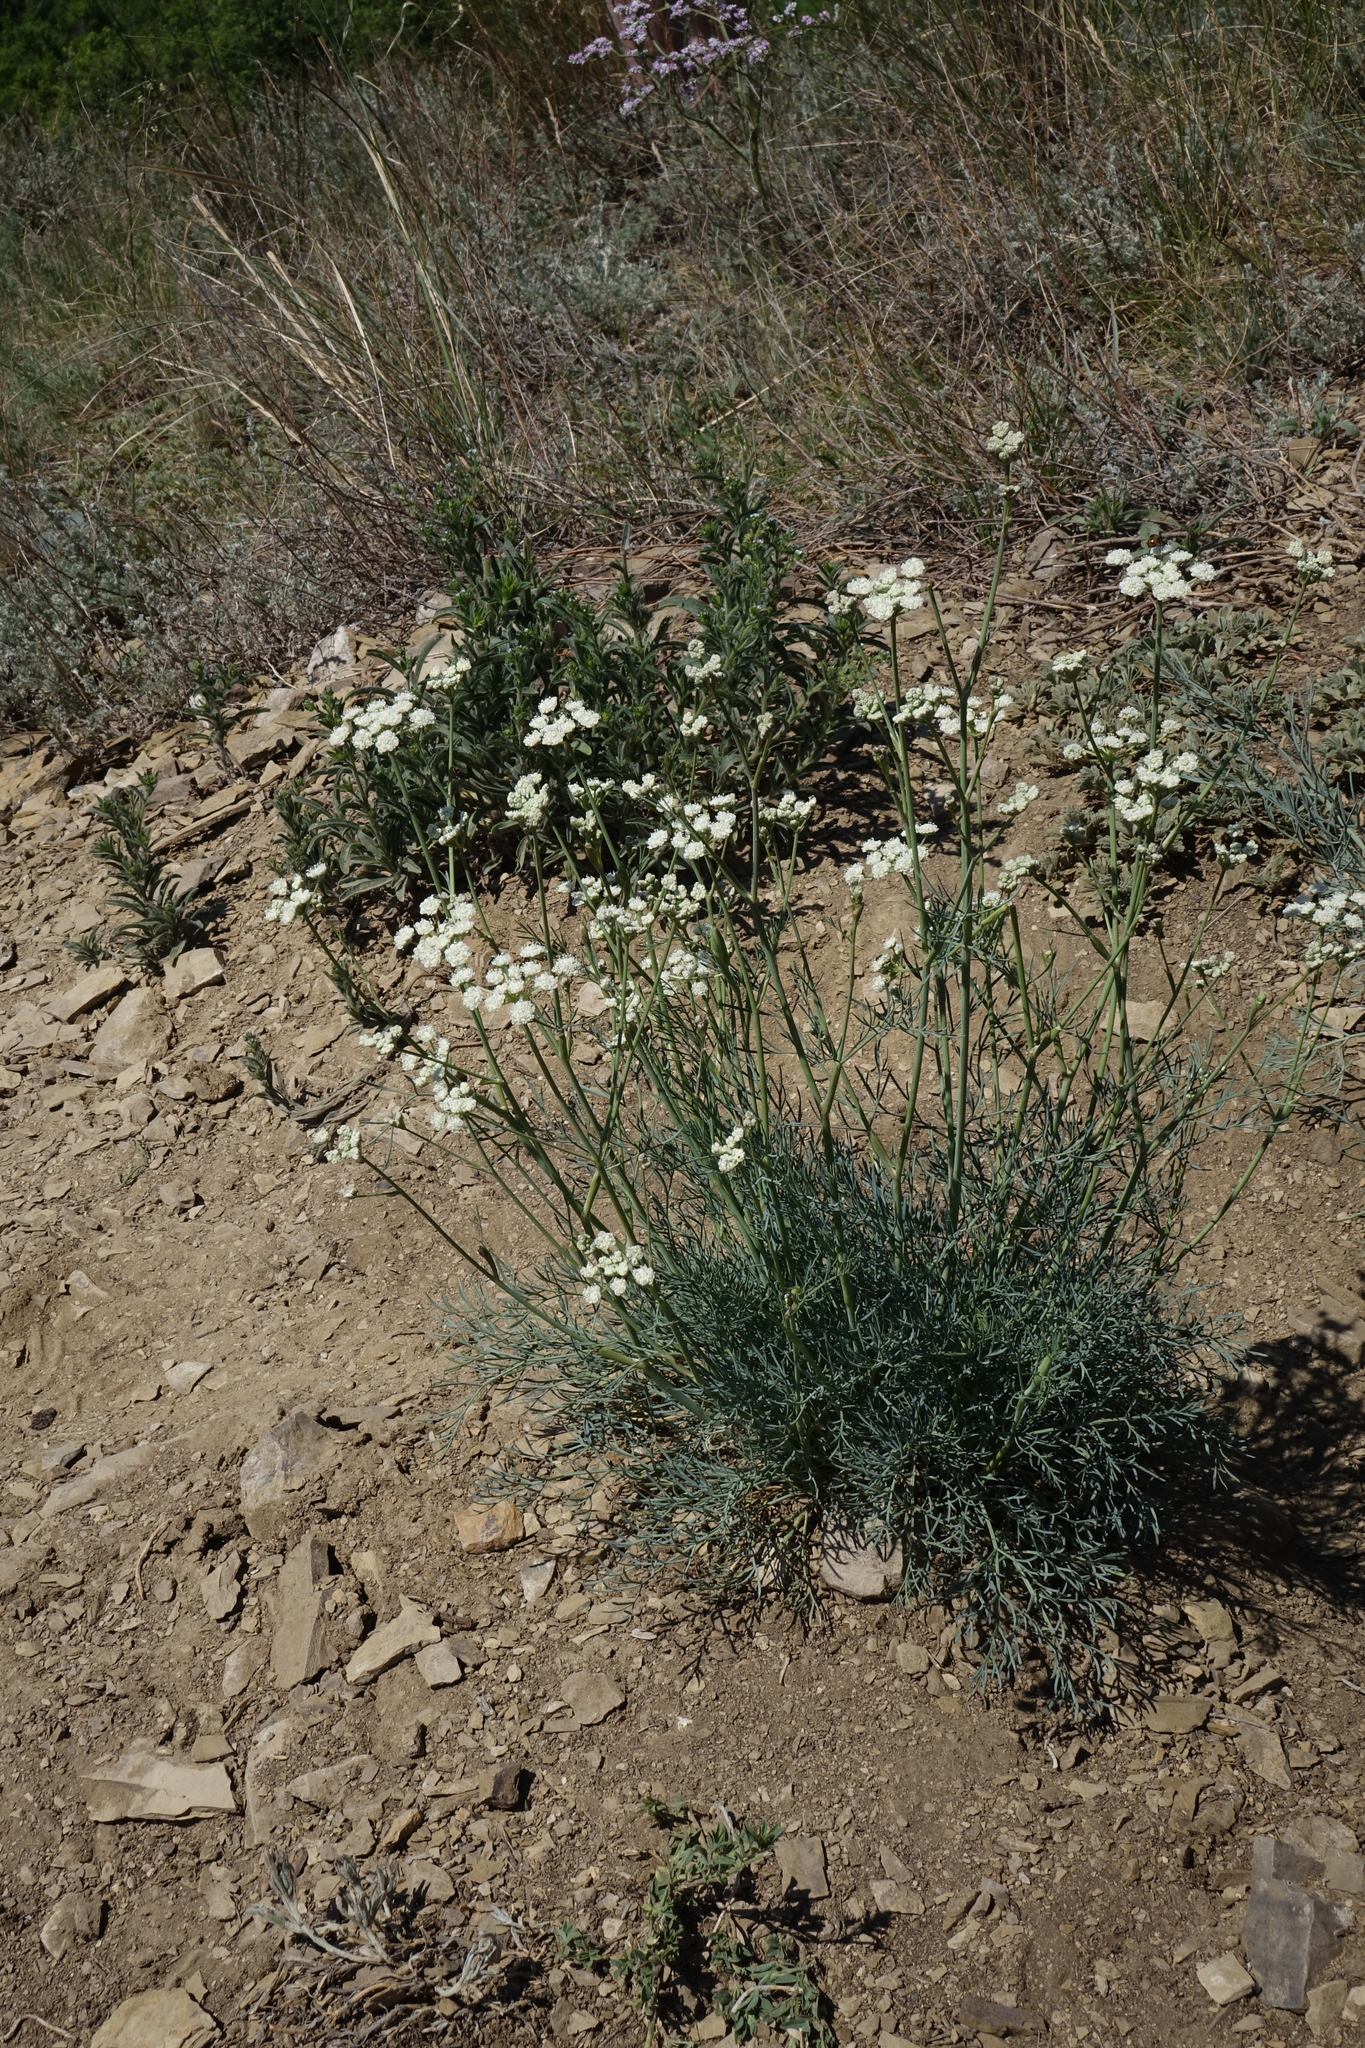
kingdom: Plantae
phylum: Tracheophyta
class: Magnoliopsida
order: Apiales
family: Apiaceae
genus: Seseli
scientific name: Seseli ledebourii
